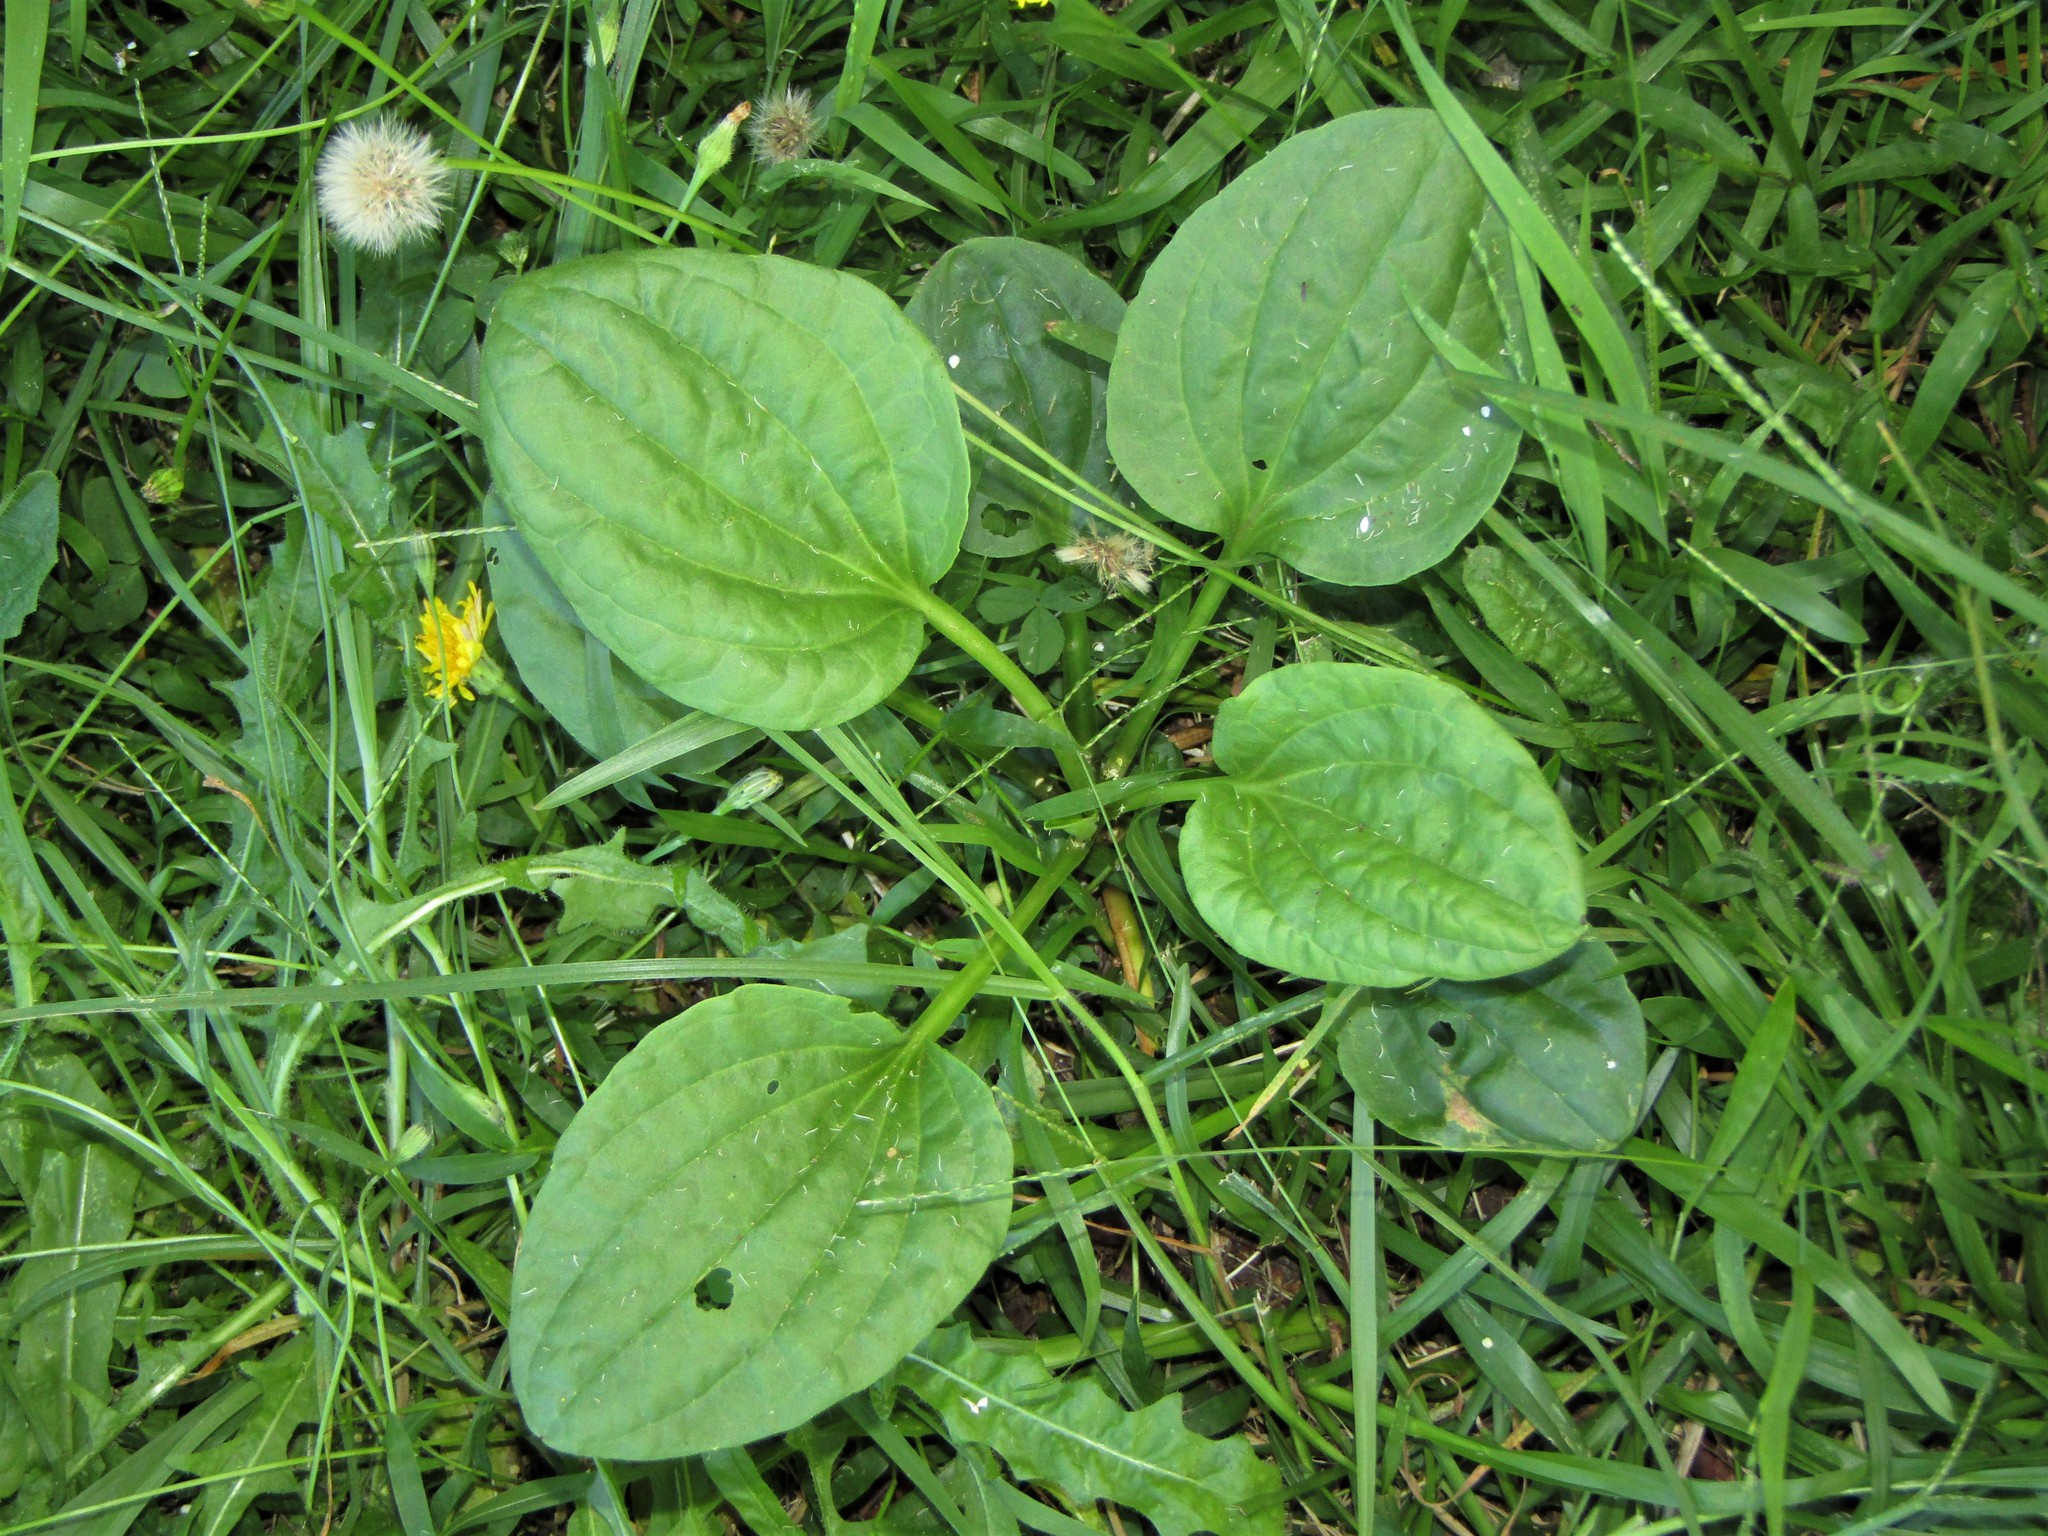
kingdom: Plantae
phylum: Tracheophyta
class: Magnoliopsida
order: Lamiales
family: Plantaginaceae
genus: Plantago
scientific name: Plantago major
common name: Common plantain
